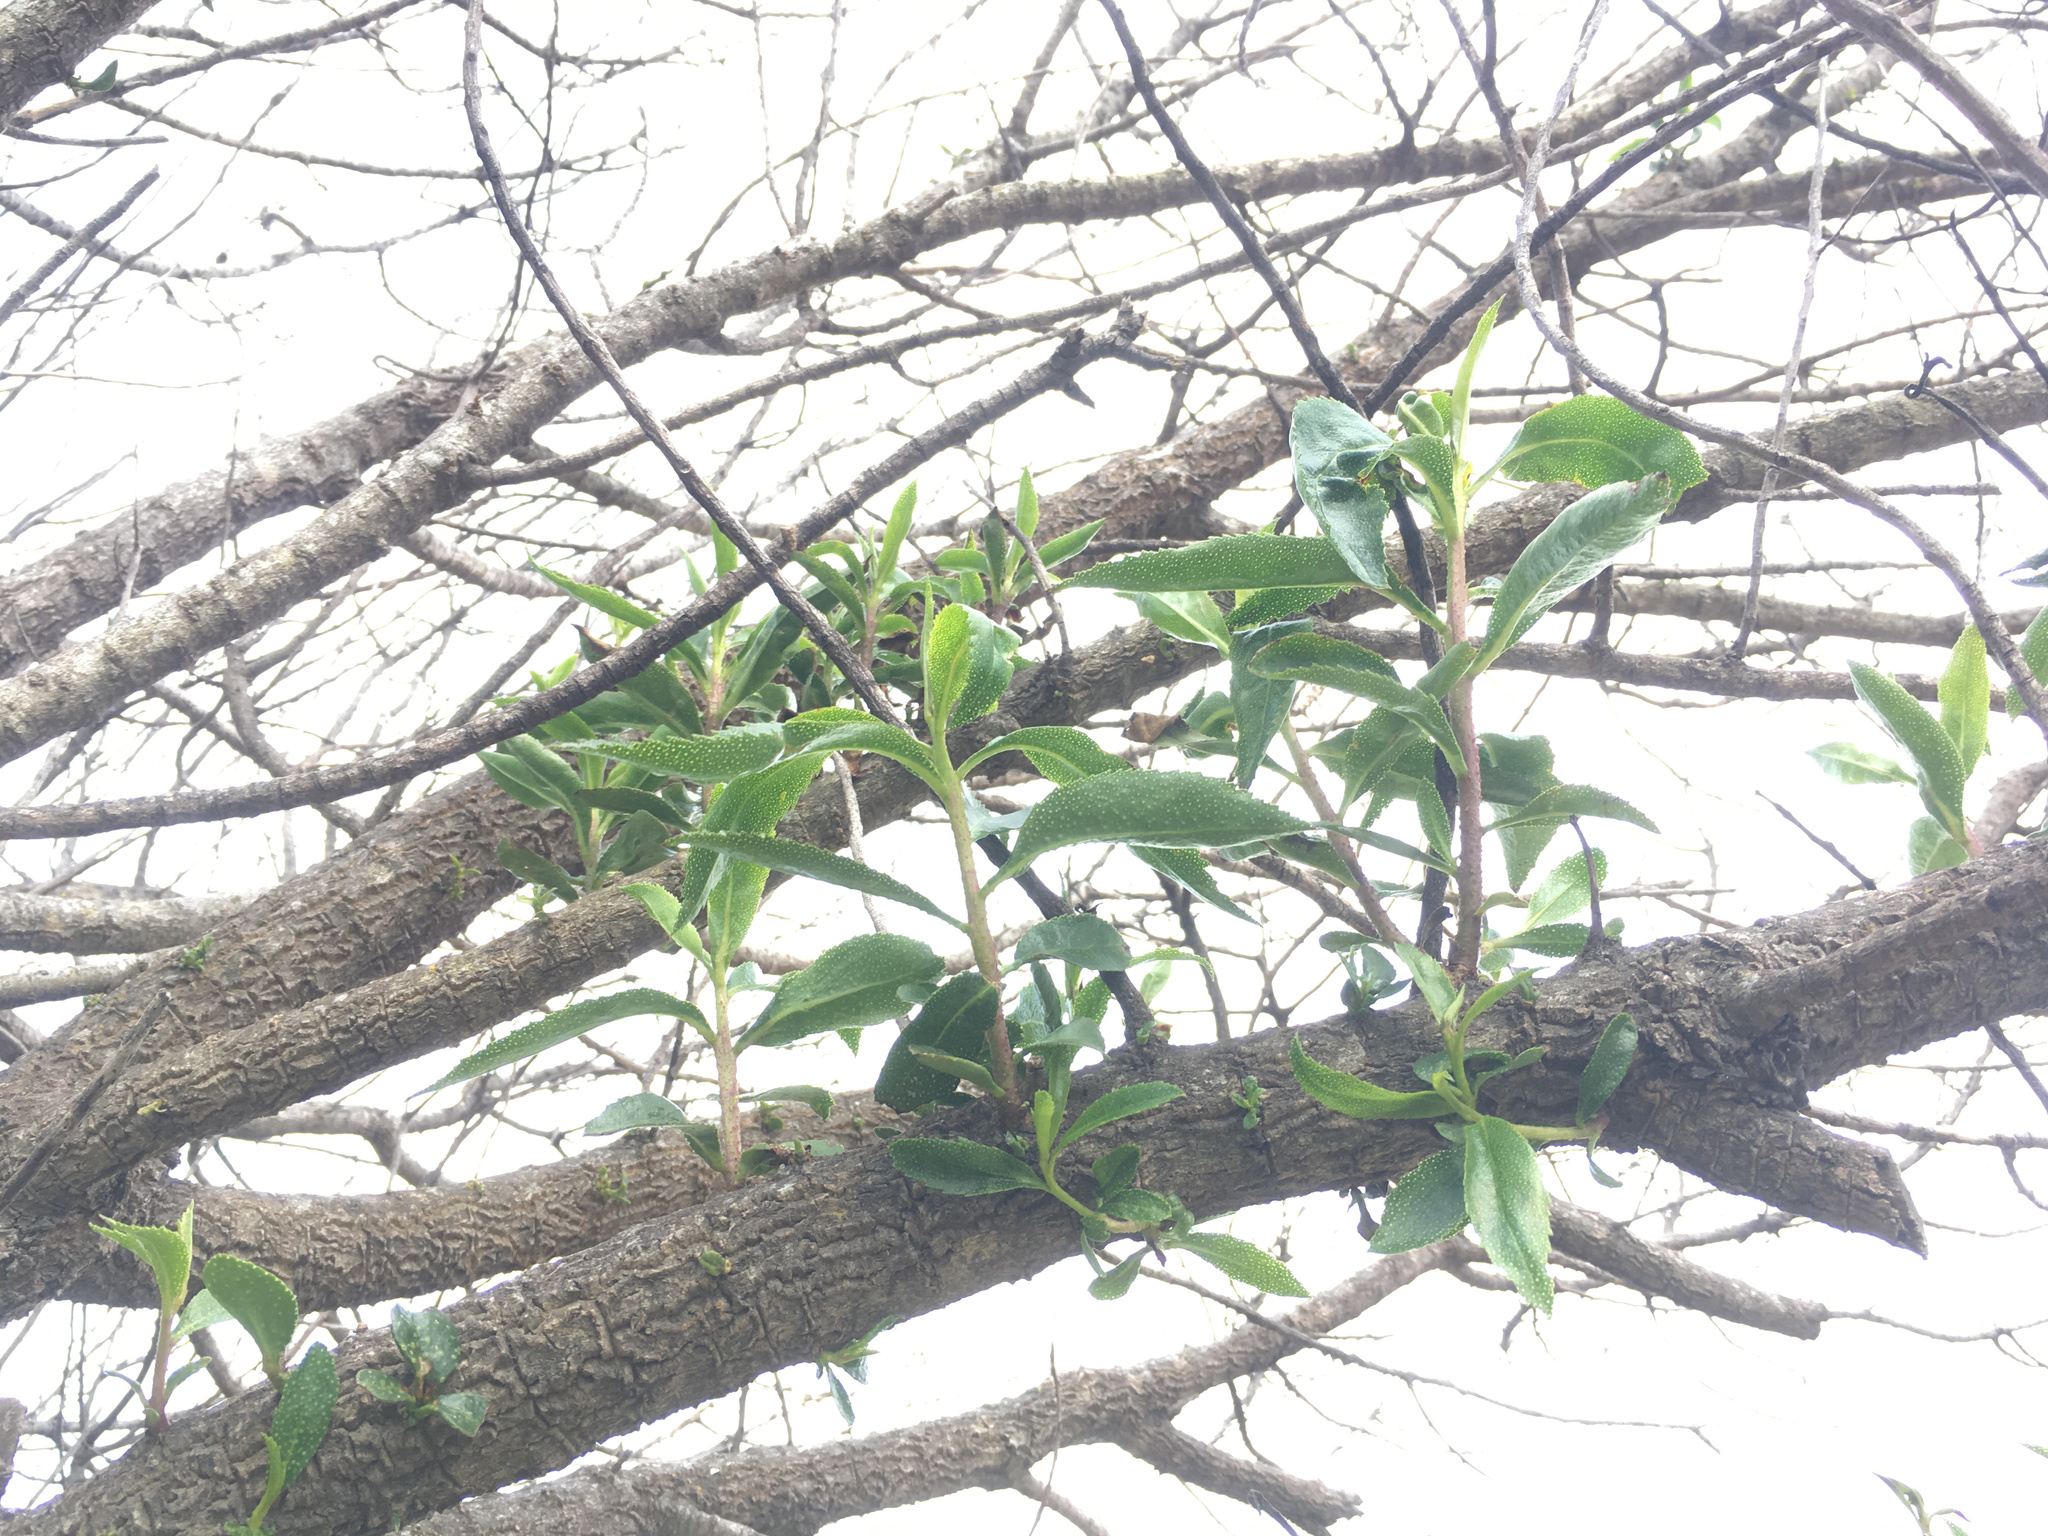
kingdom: Plantae
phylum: Tracheophyta
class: Magnoliopsida
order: Lamiales
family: Scrophulariaceae
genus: Myoporum
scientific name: Myoporum laetum
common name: Ngaio tree
